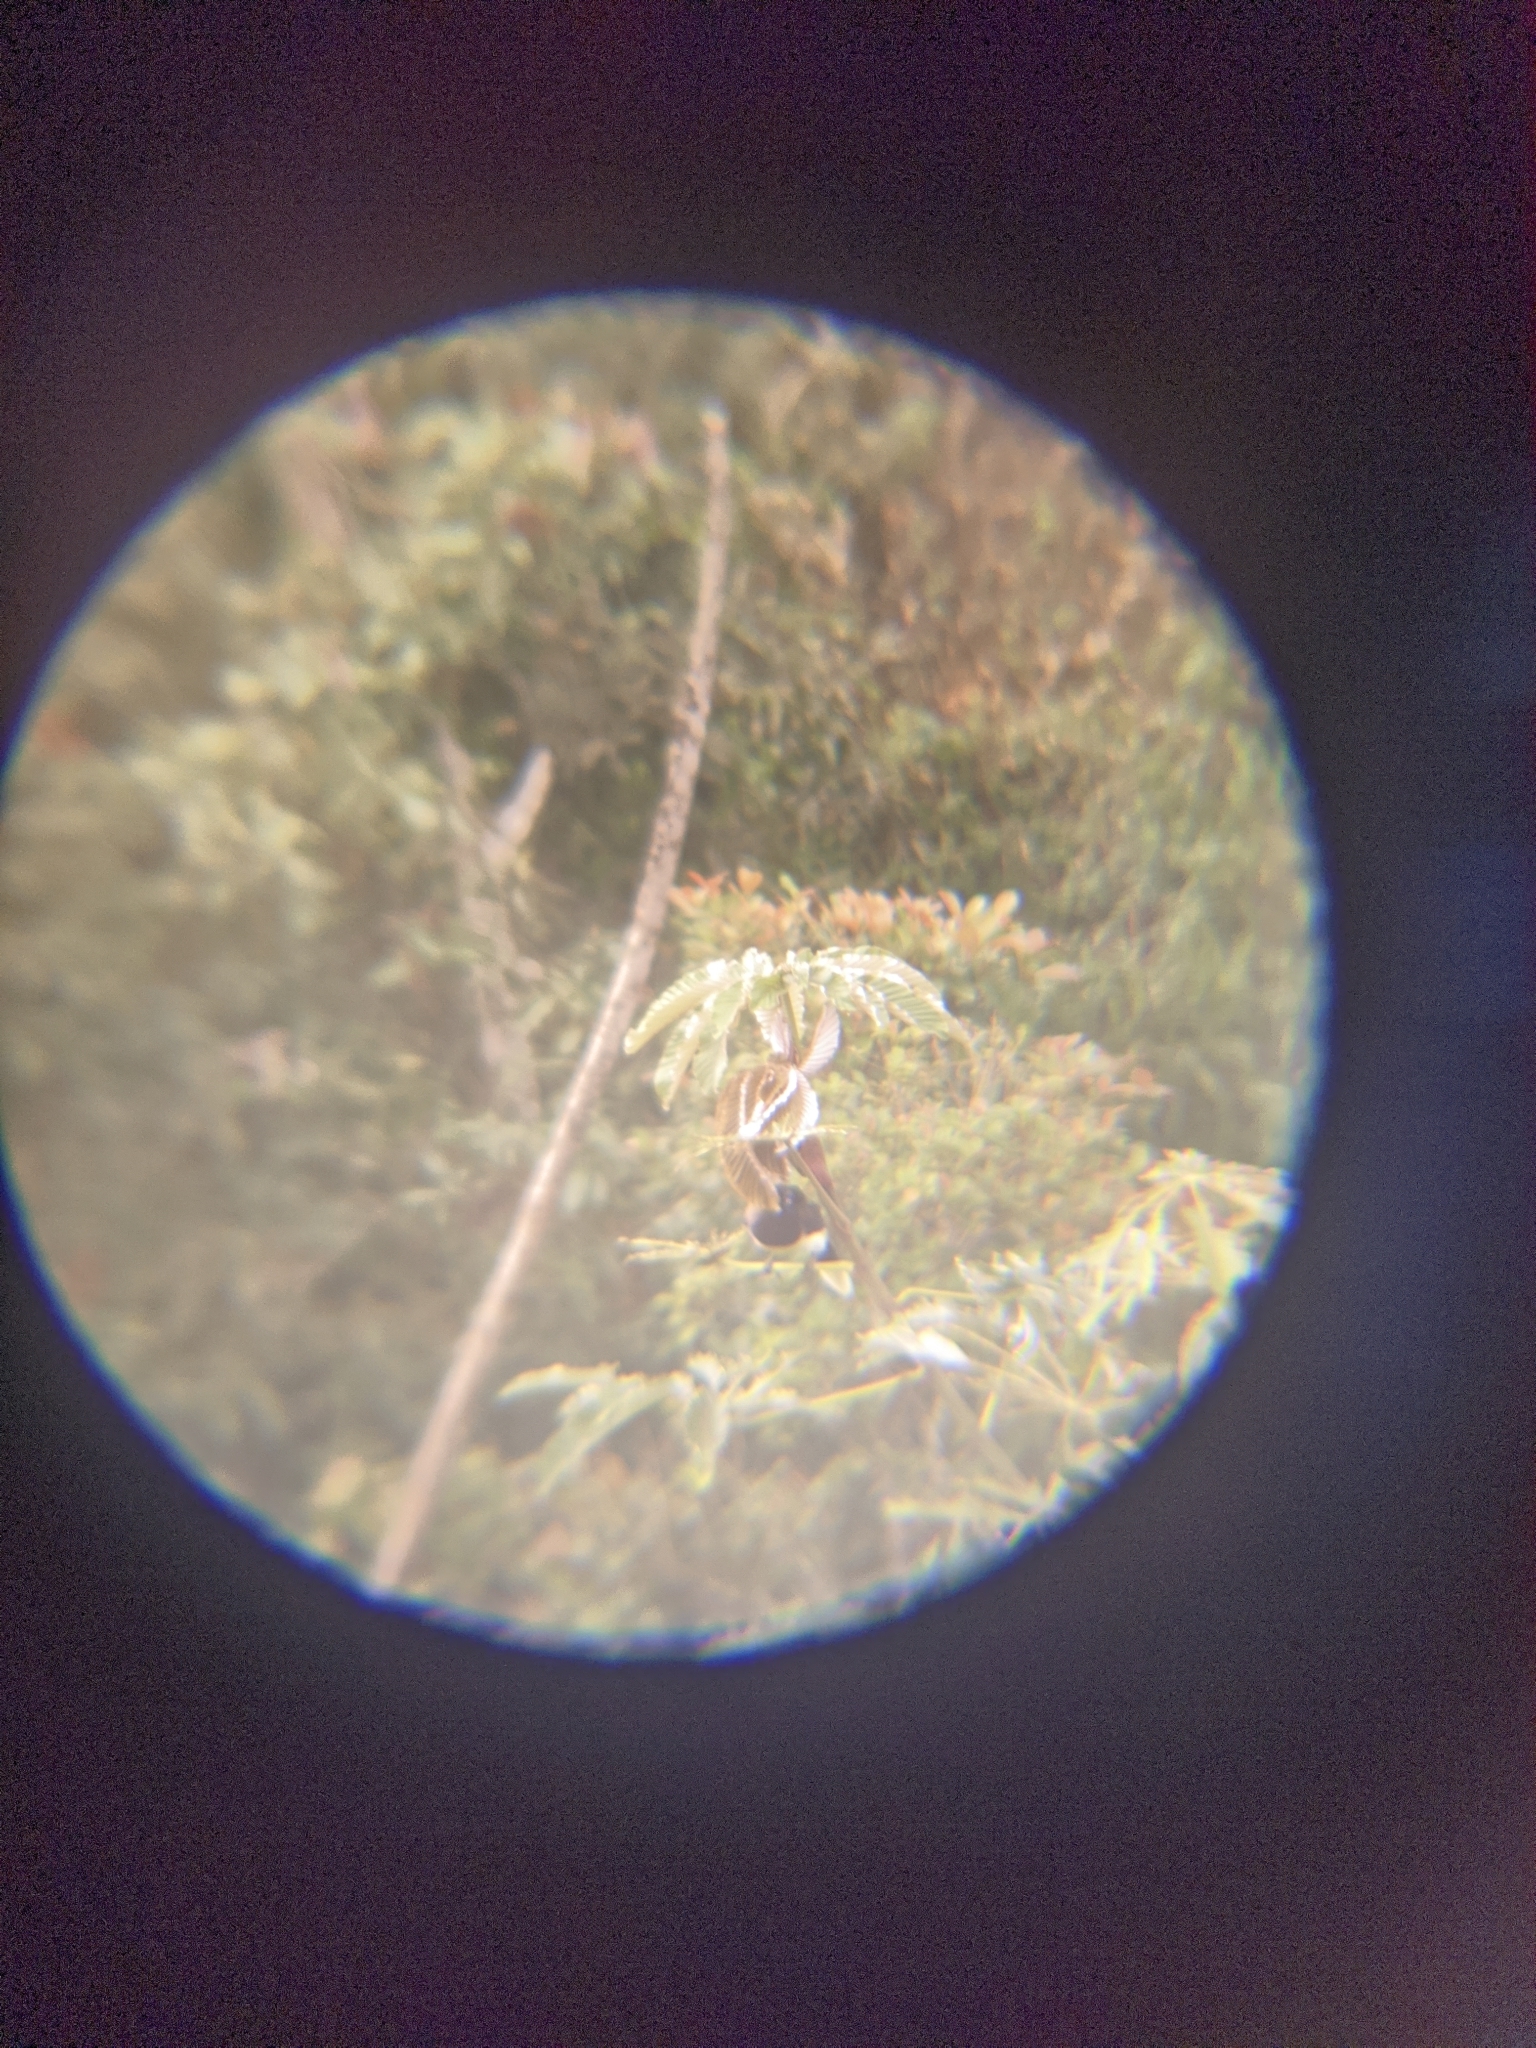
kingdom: Animalia
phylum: Chordata
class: Aves
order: Passeriformes
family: Corvidae
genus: Cyanocorax
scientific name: Cyanocorax affinis
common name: Black-chested jay
